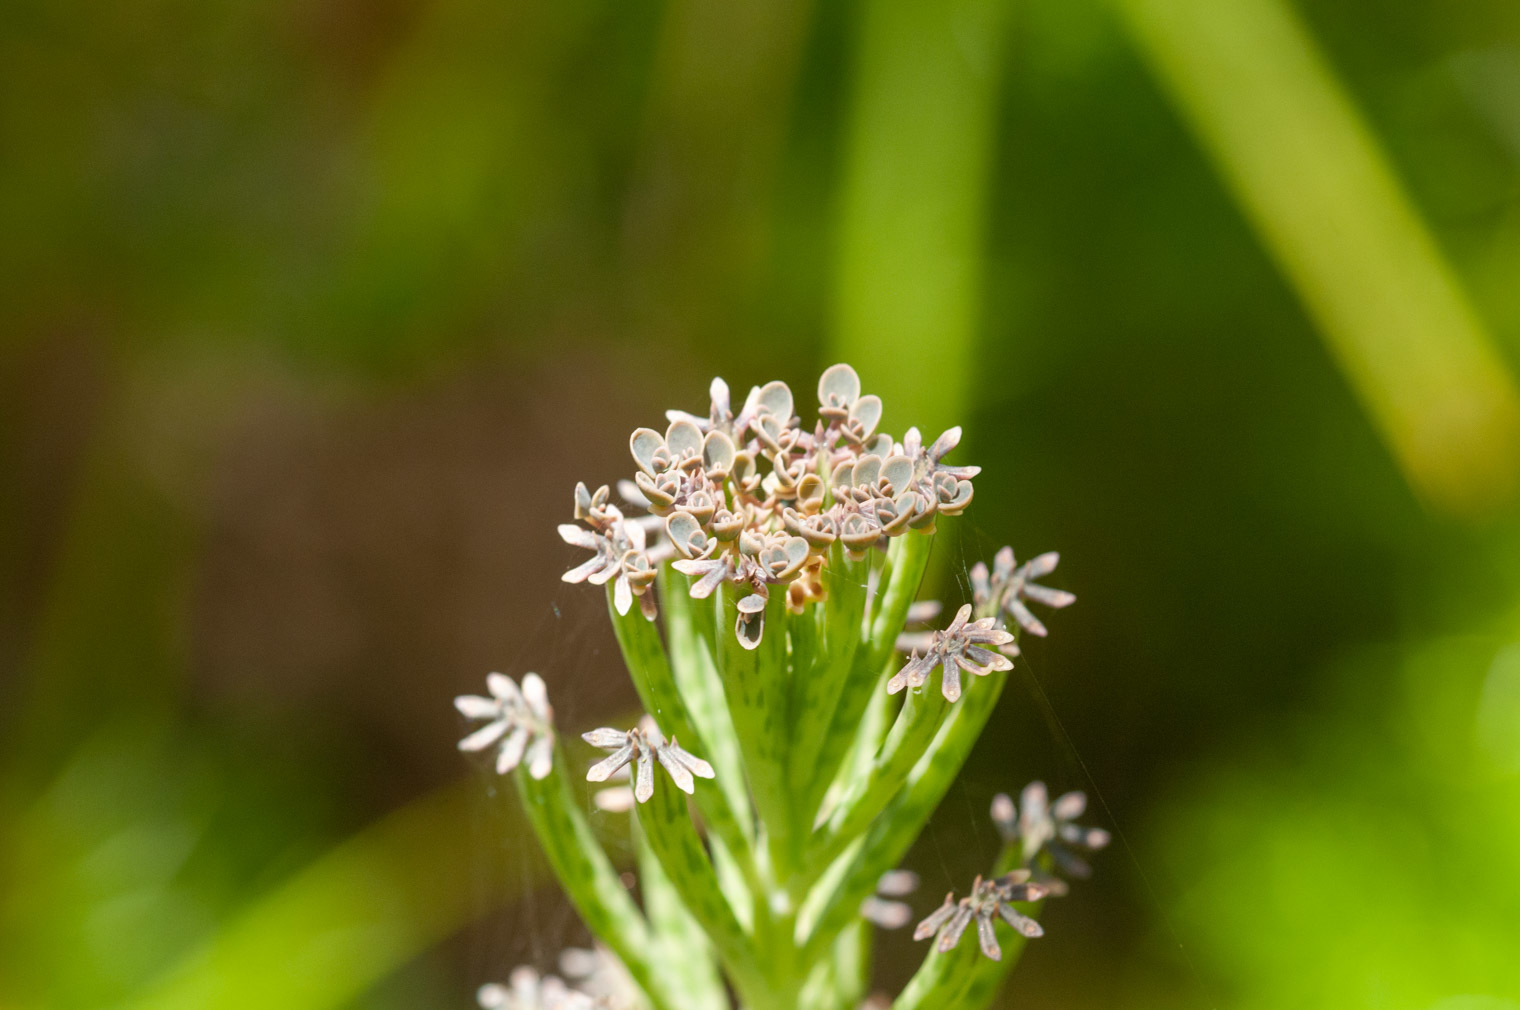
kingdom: Plantae
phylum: Tracheophyta
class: Magnoliopsida
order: Saxifragales
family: Crassulaceae
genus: Kalanchoe
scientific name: Kalanchoe delagoensis
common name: Chandelier plant
